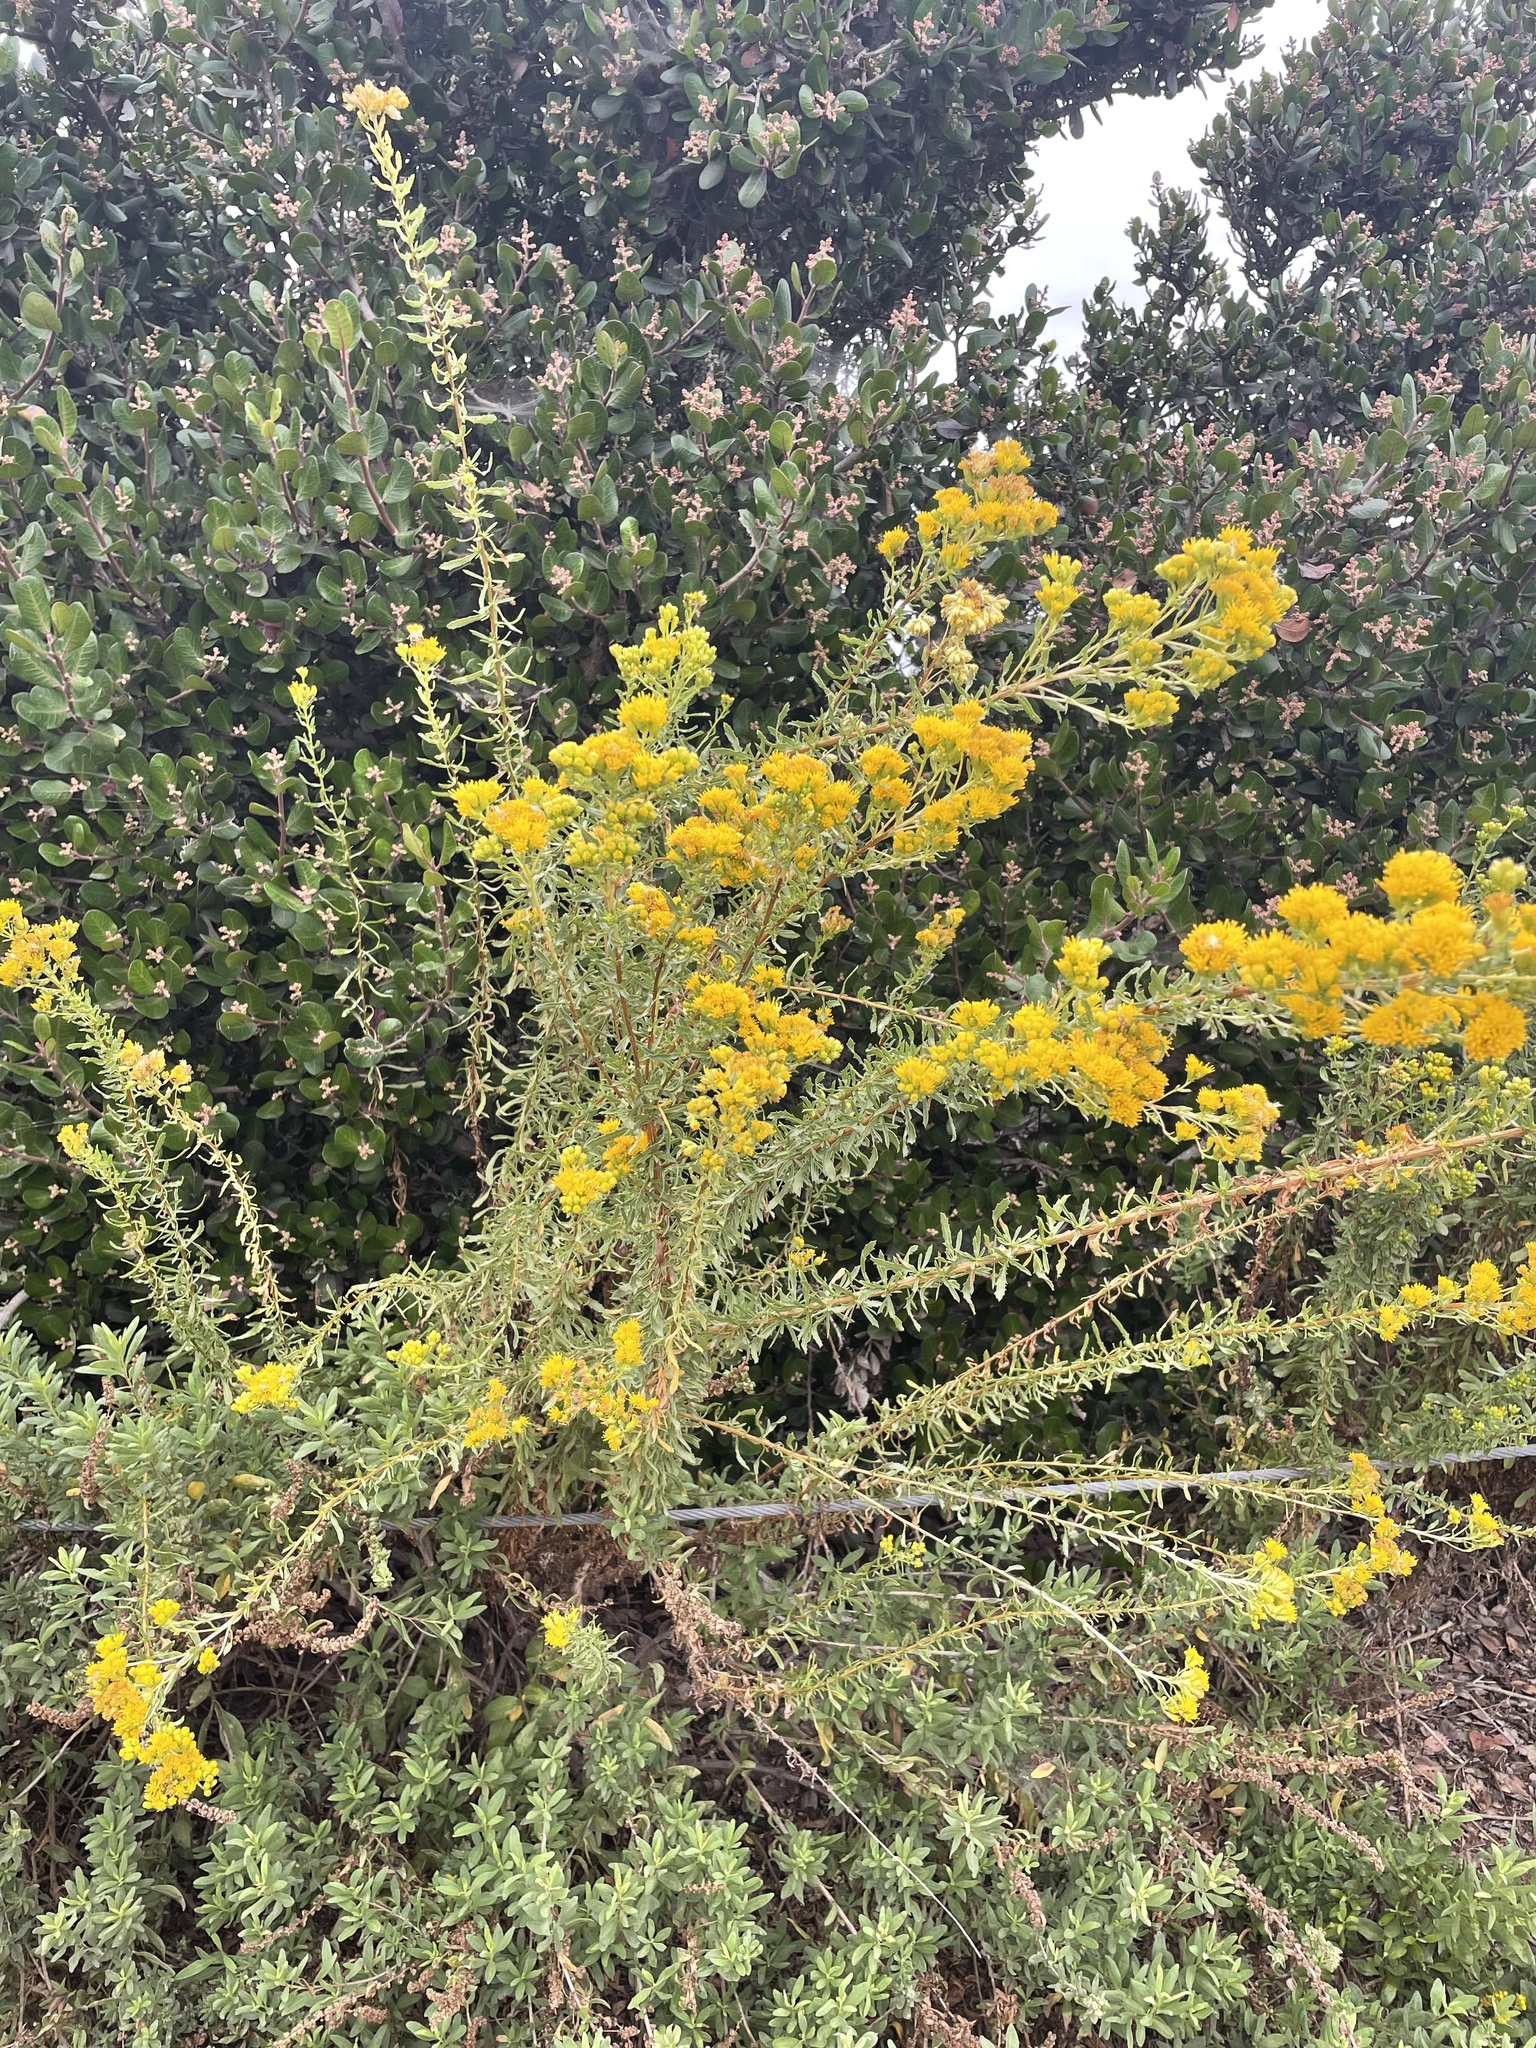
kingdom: Plantae
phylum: Tracheophyta
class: Magnoliopsida
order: Asterales
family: Asteraceae
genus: Isocoma
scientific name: Isocoma menziesii
